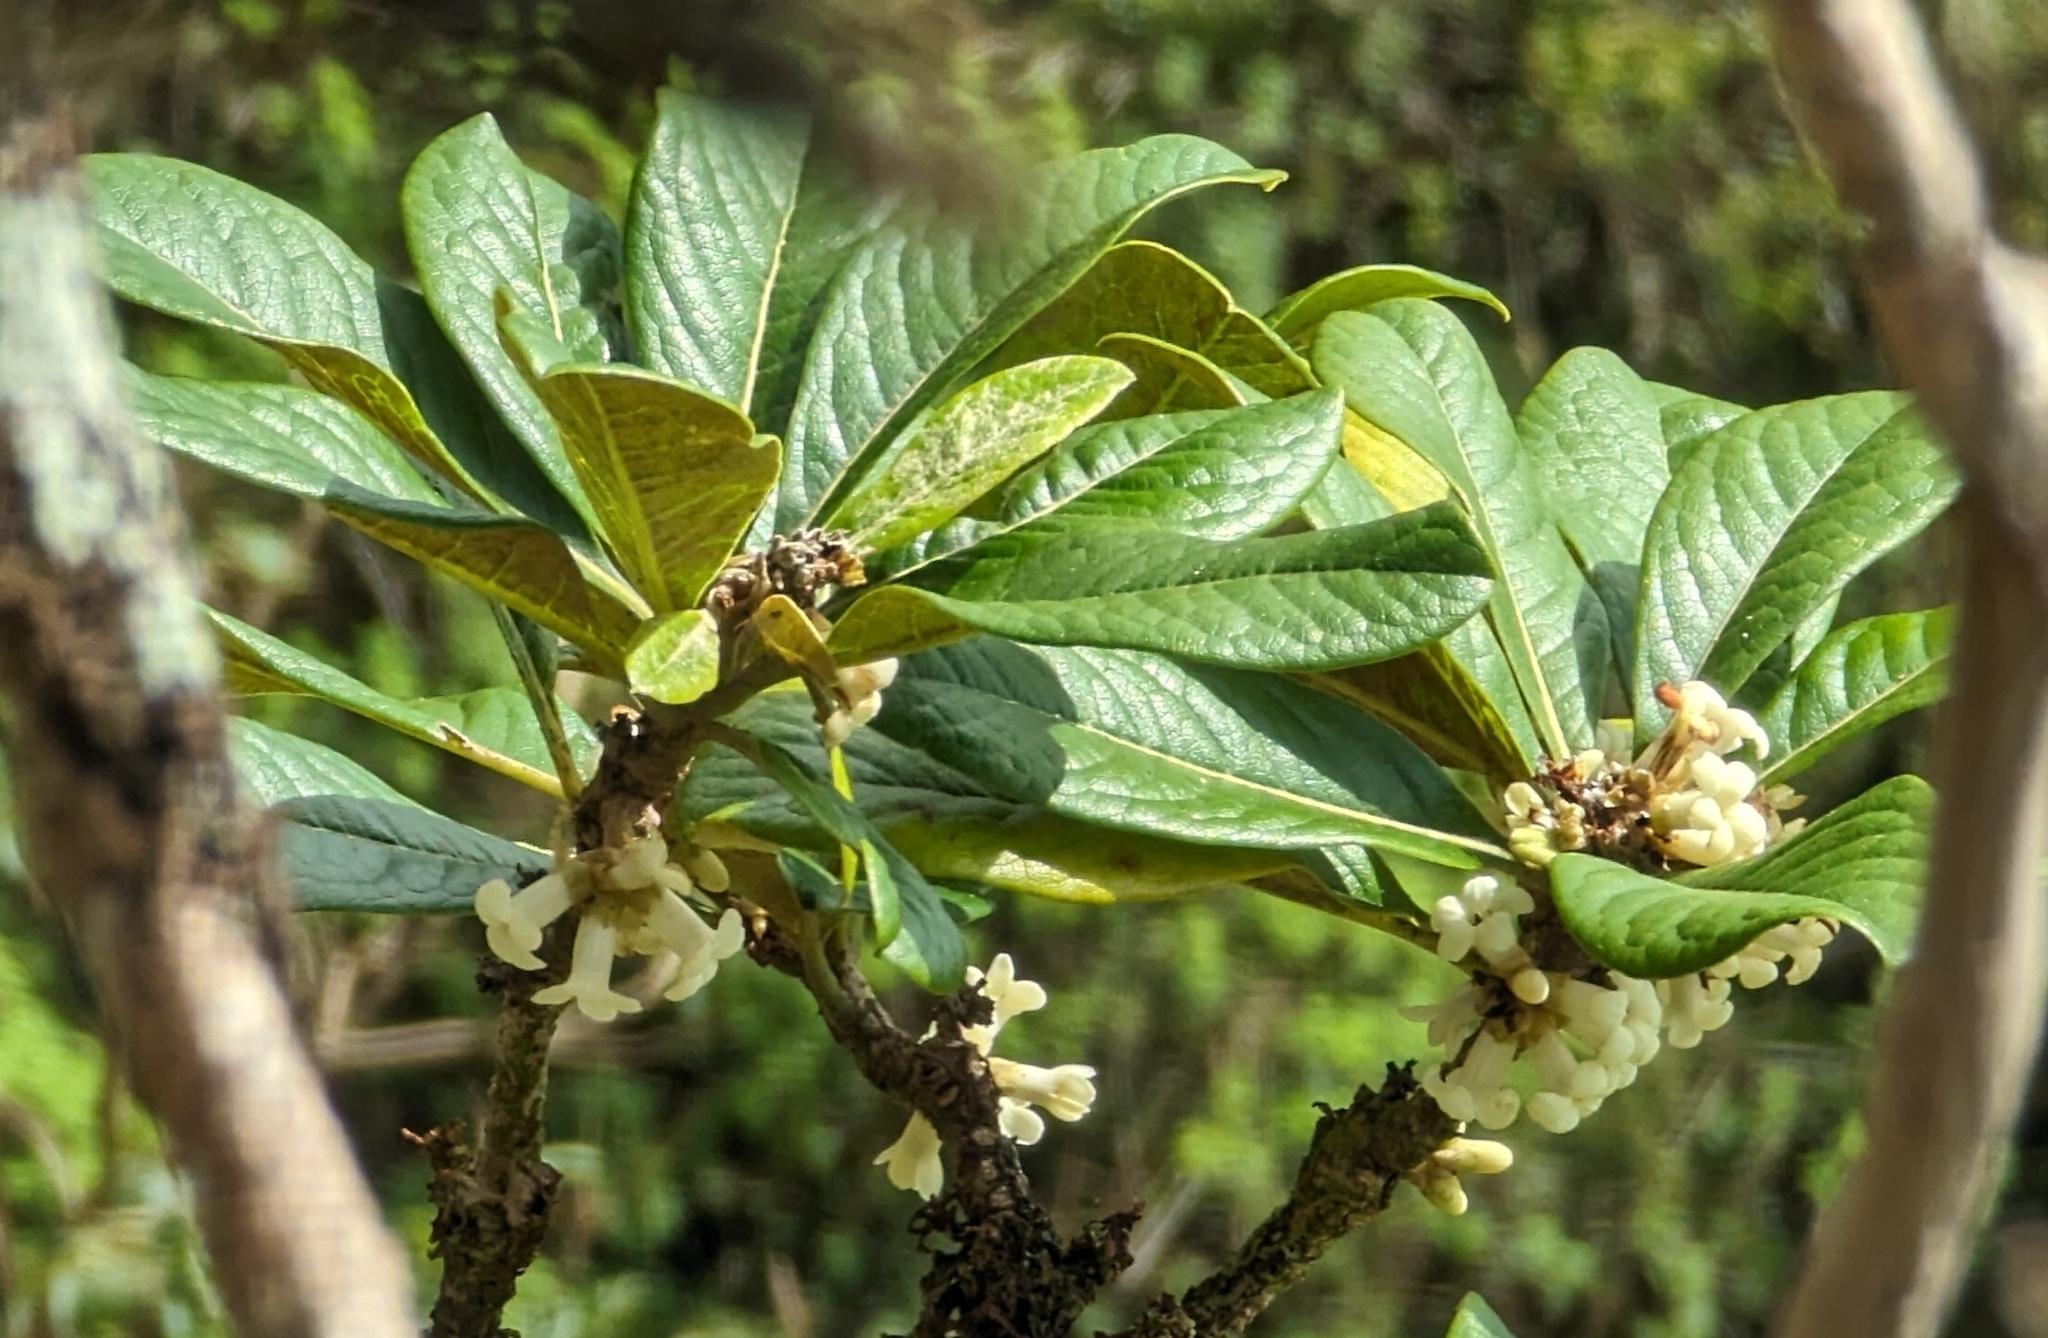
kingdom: Plantae
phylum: Tracheophyta
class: Magnoliopsida
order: Apiales
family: Pittosporaceae
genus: Pittosporum
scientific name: Pittosporum confertiflorum
